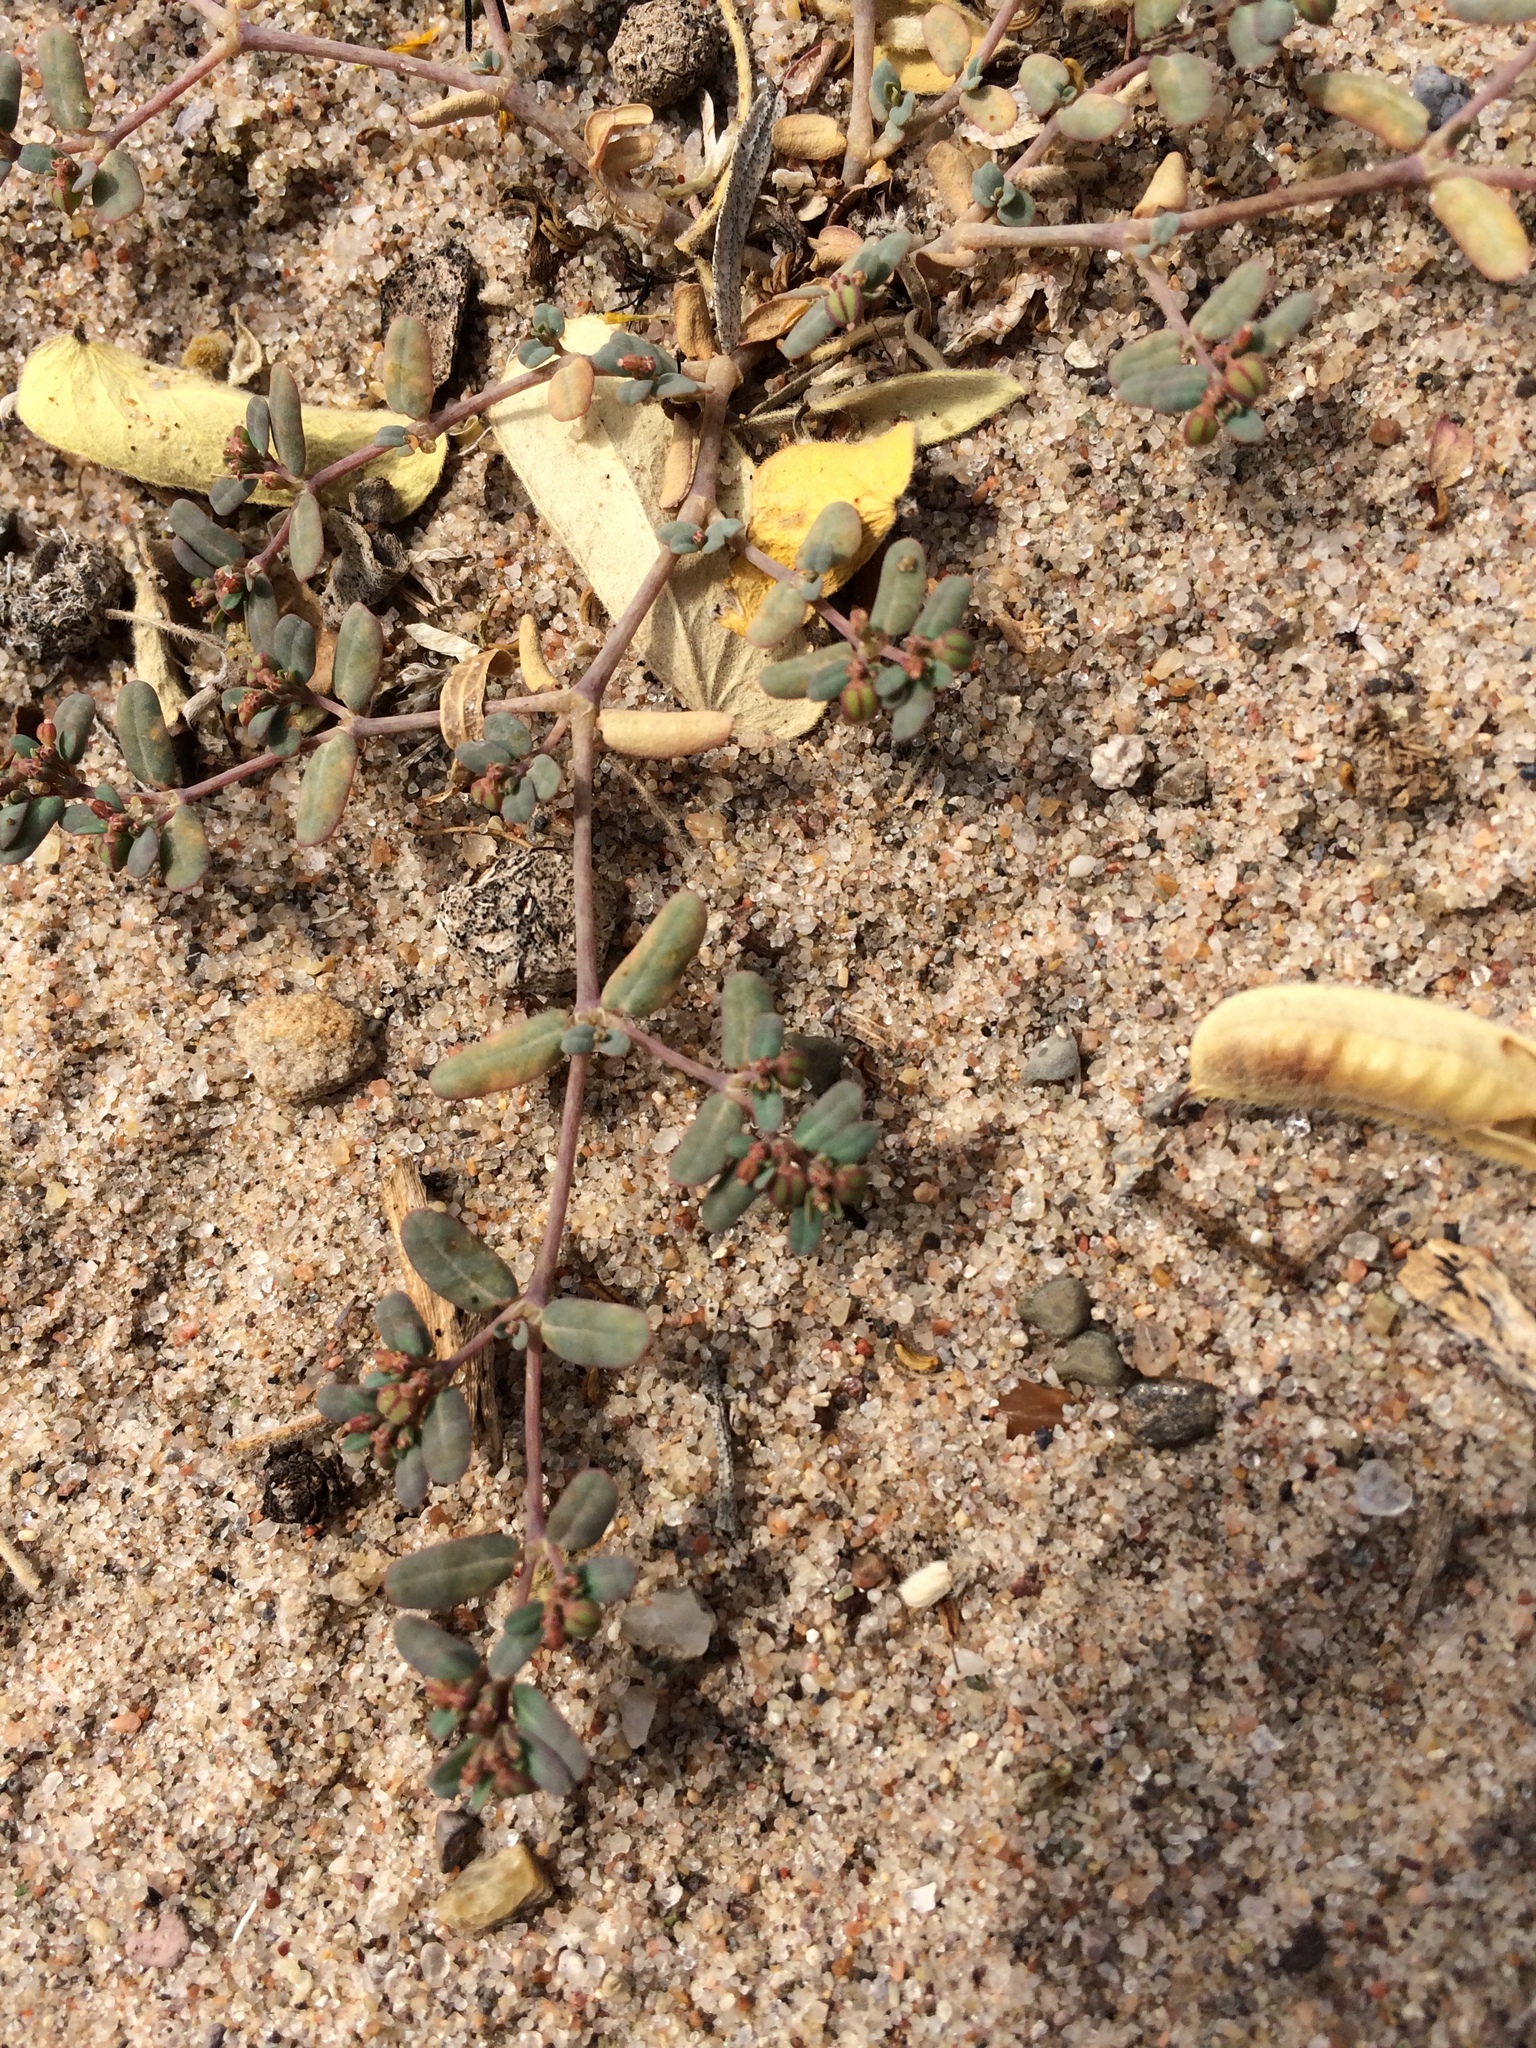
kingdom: Plantae
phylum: Tracheophyta
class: Magnoliopsida
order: Malpighiales
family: Euphorbiaceae
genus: Euphorbia
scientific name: Euphorbia golondrina
